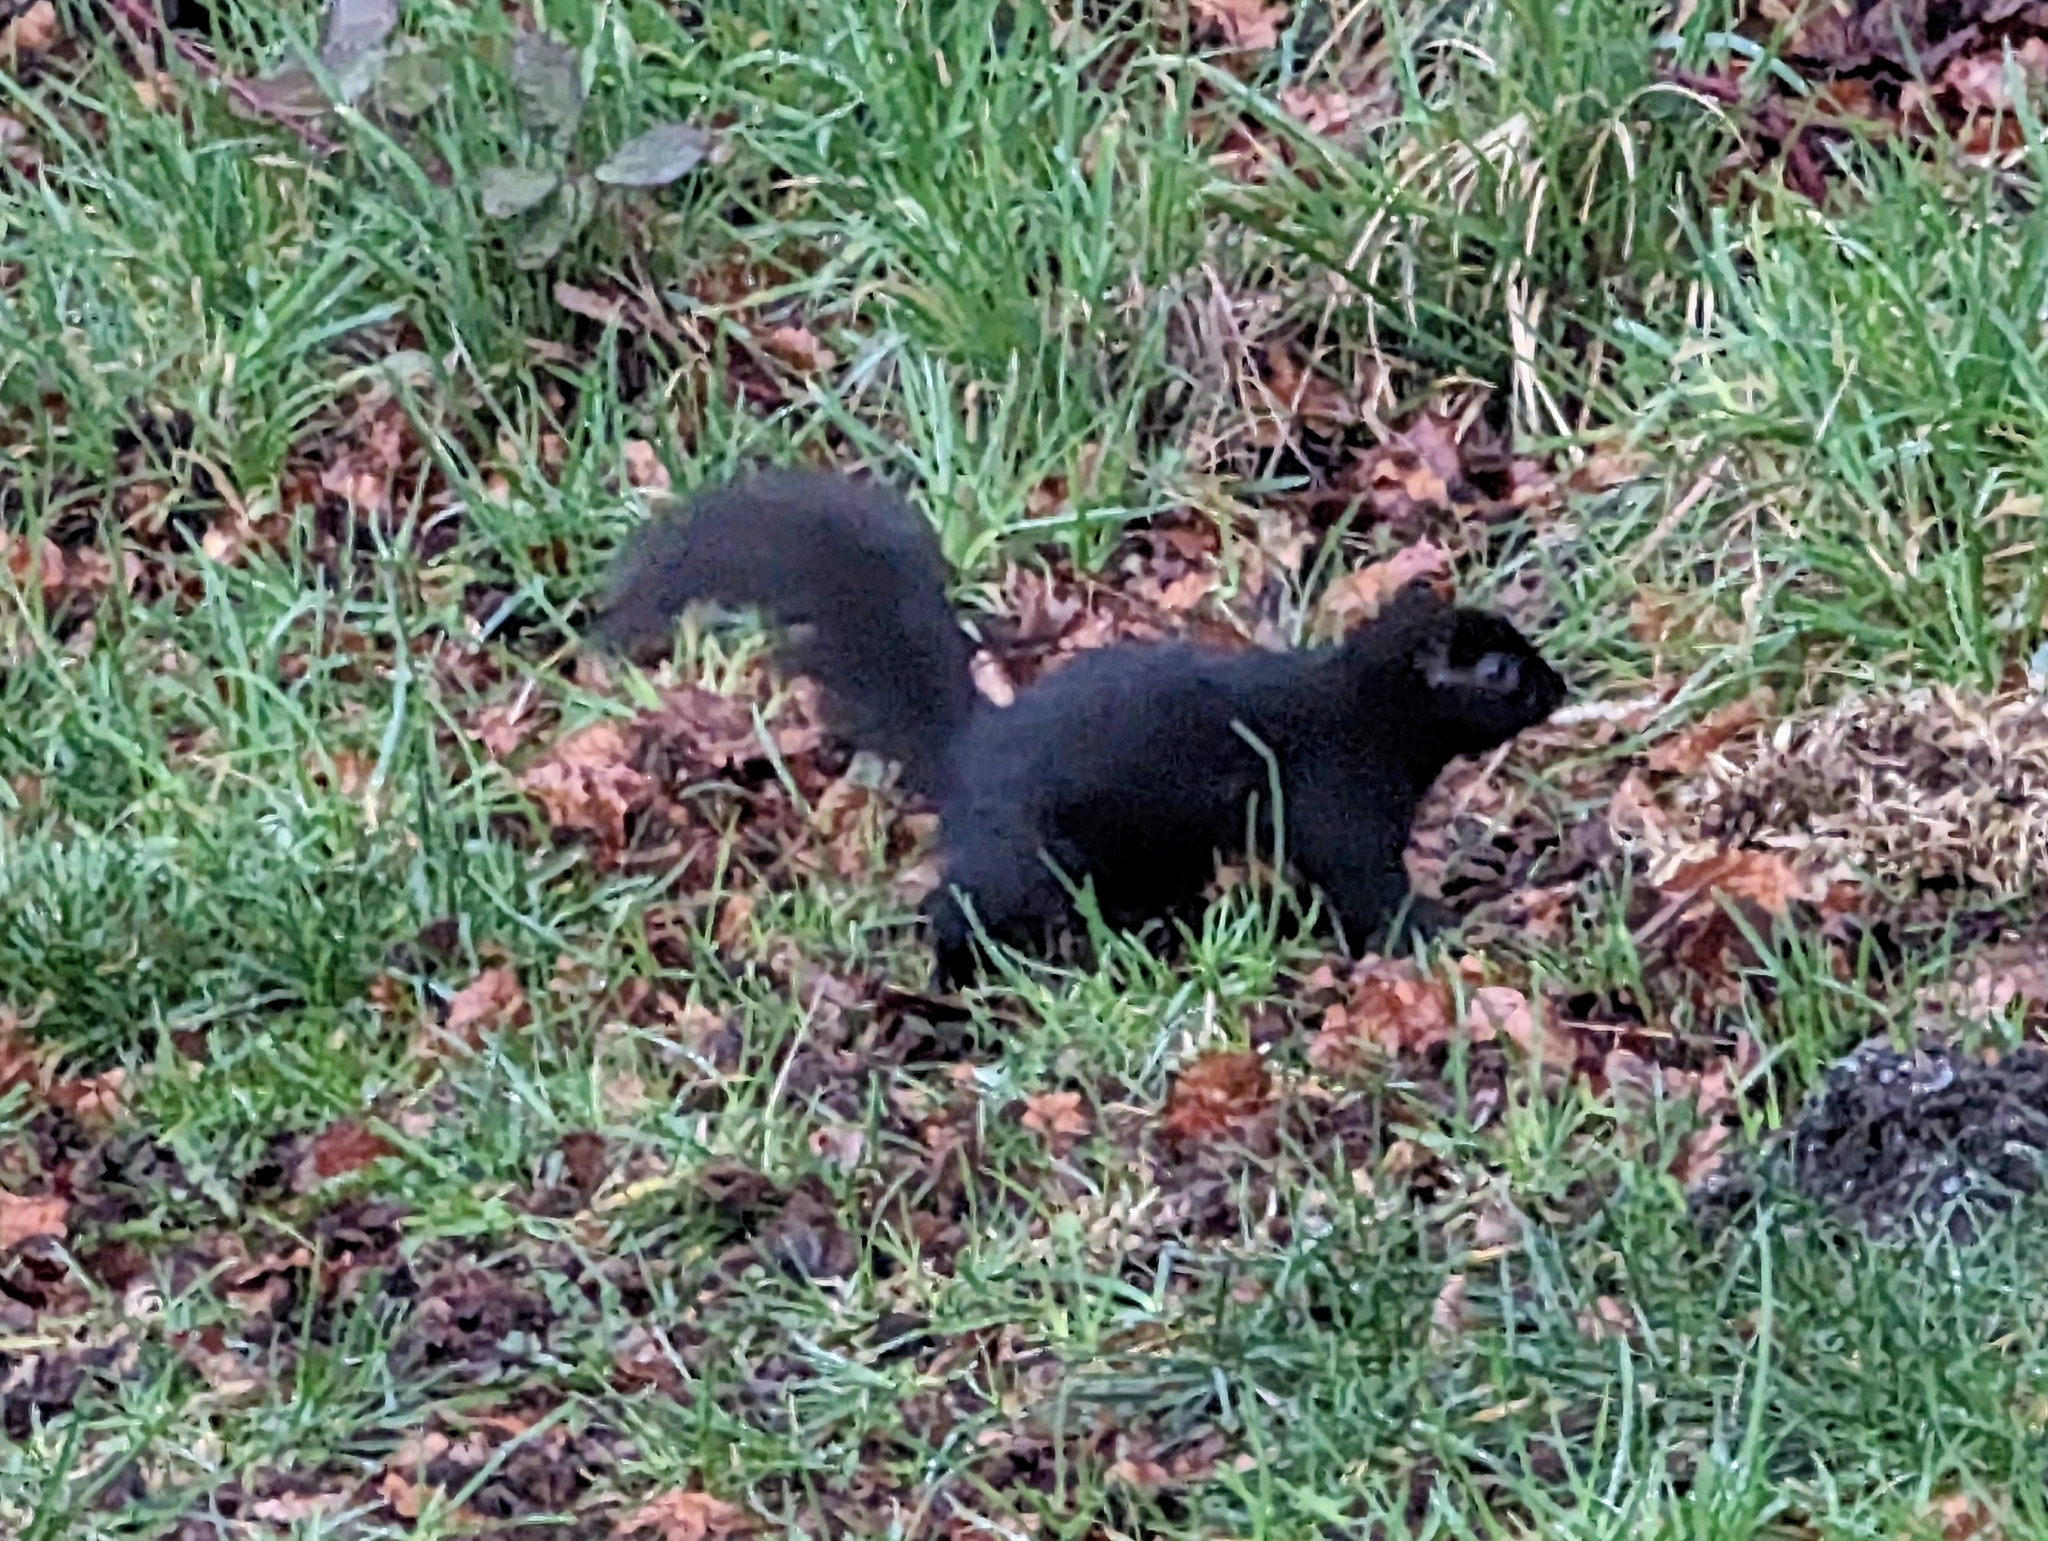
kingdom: Animalia
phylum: Chordata
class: Mammalia
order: Rodentia
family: Sciuridae
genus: Sciurus
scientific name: Sciurus carolinensis
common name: Eastern gray squirrel
